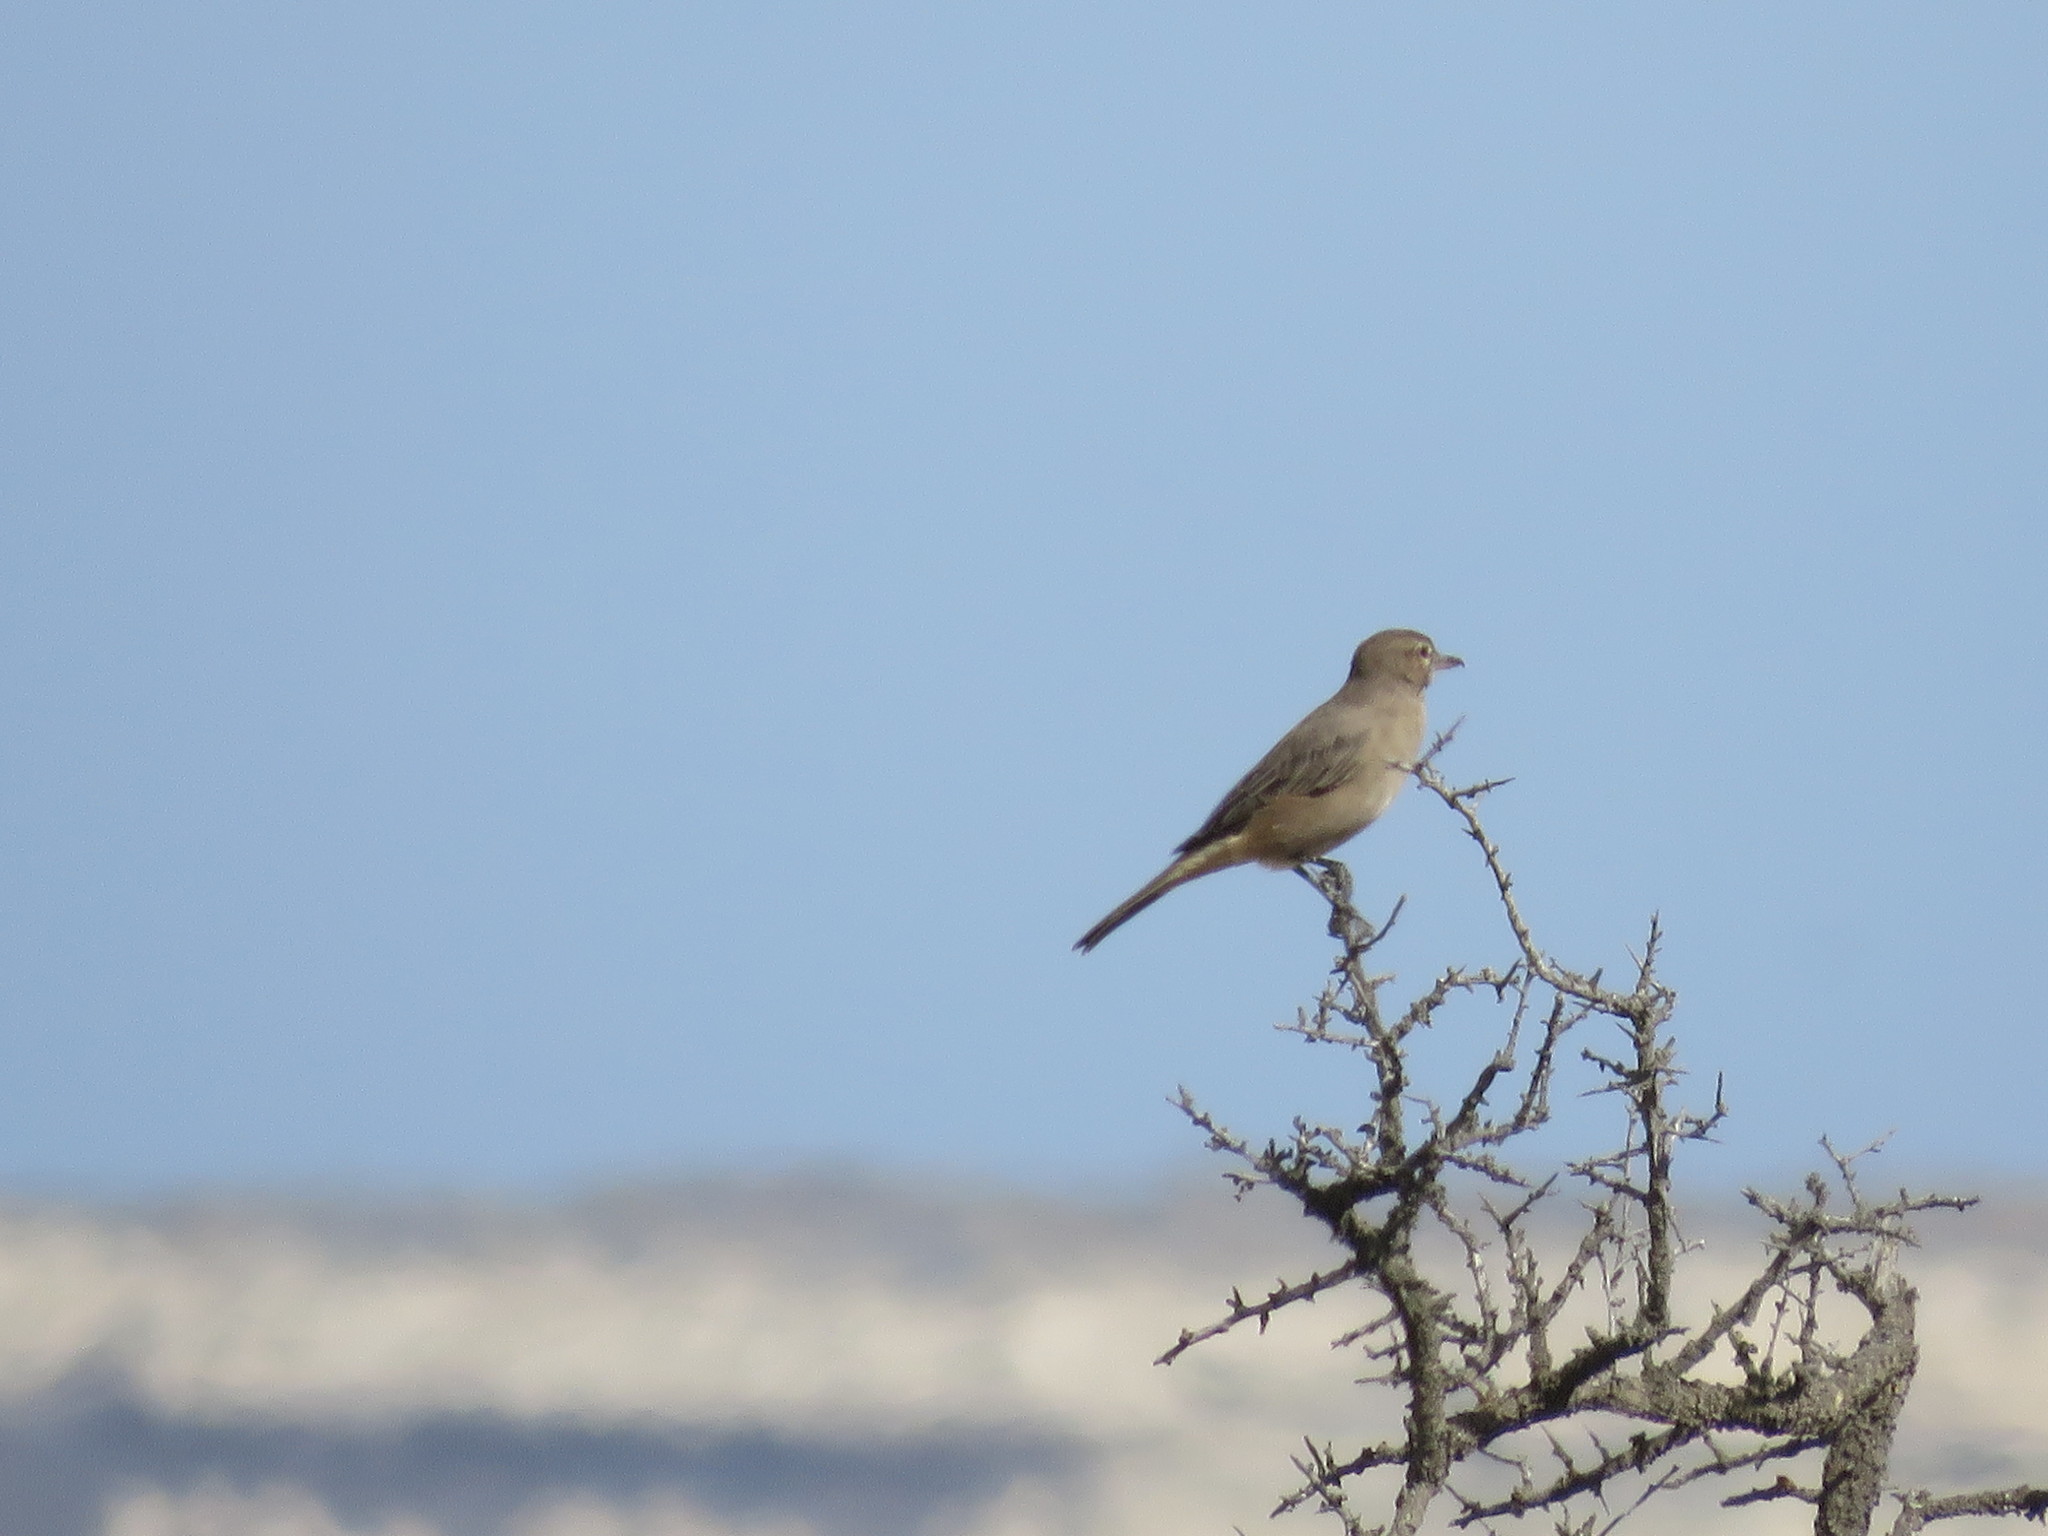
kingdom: Animalia
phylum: Chordata
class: Aves
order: Passeriformes
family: Tyrannidae
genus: Agriornis
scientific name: Agriornis micropterus
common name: Grey-bellied shrike-tyrant
